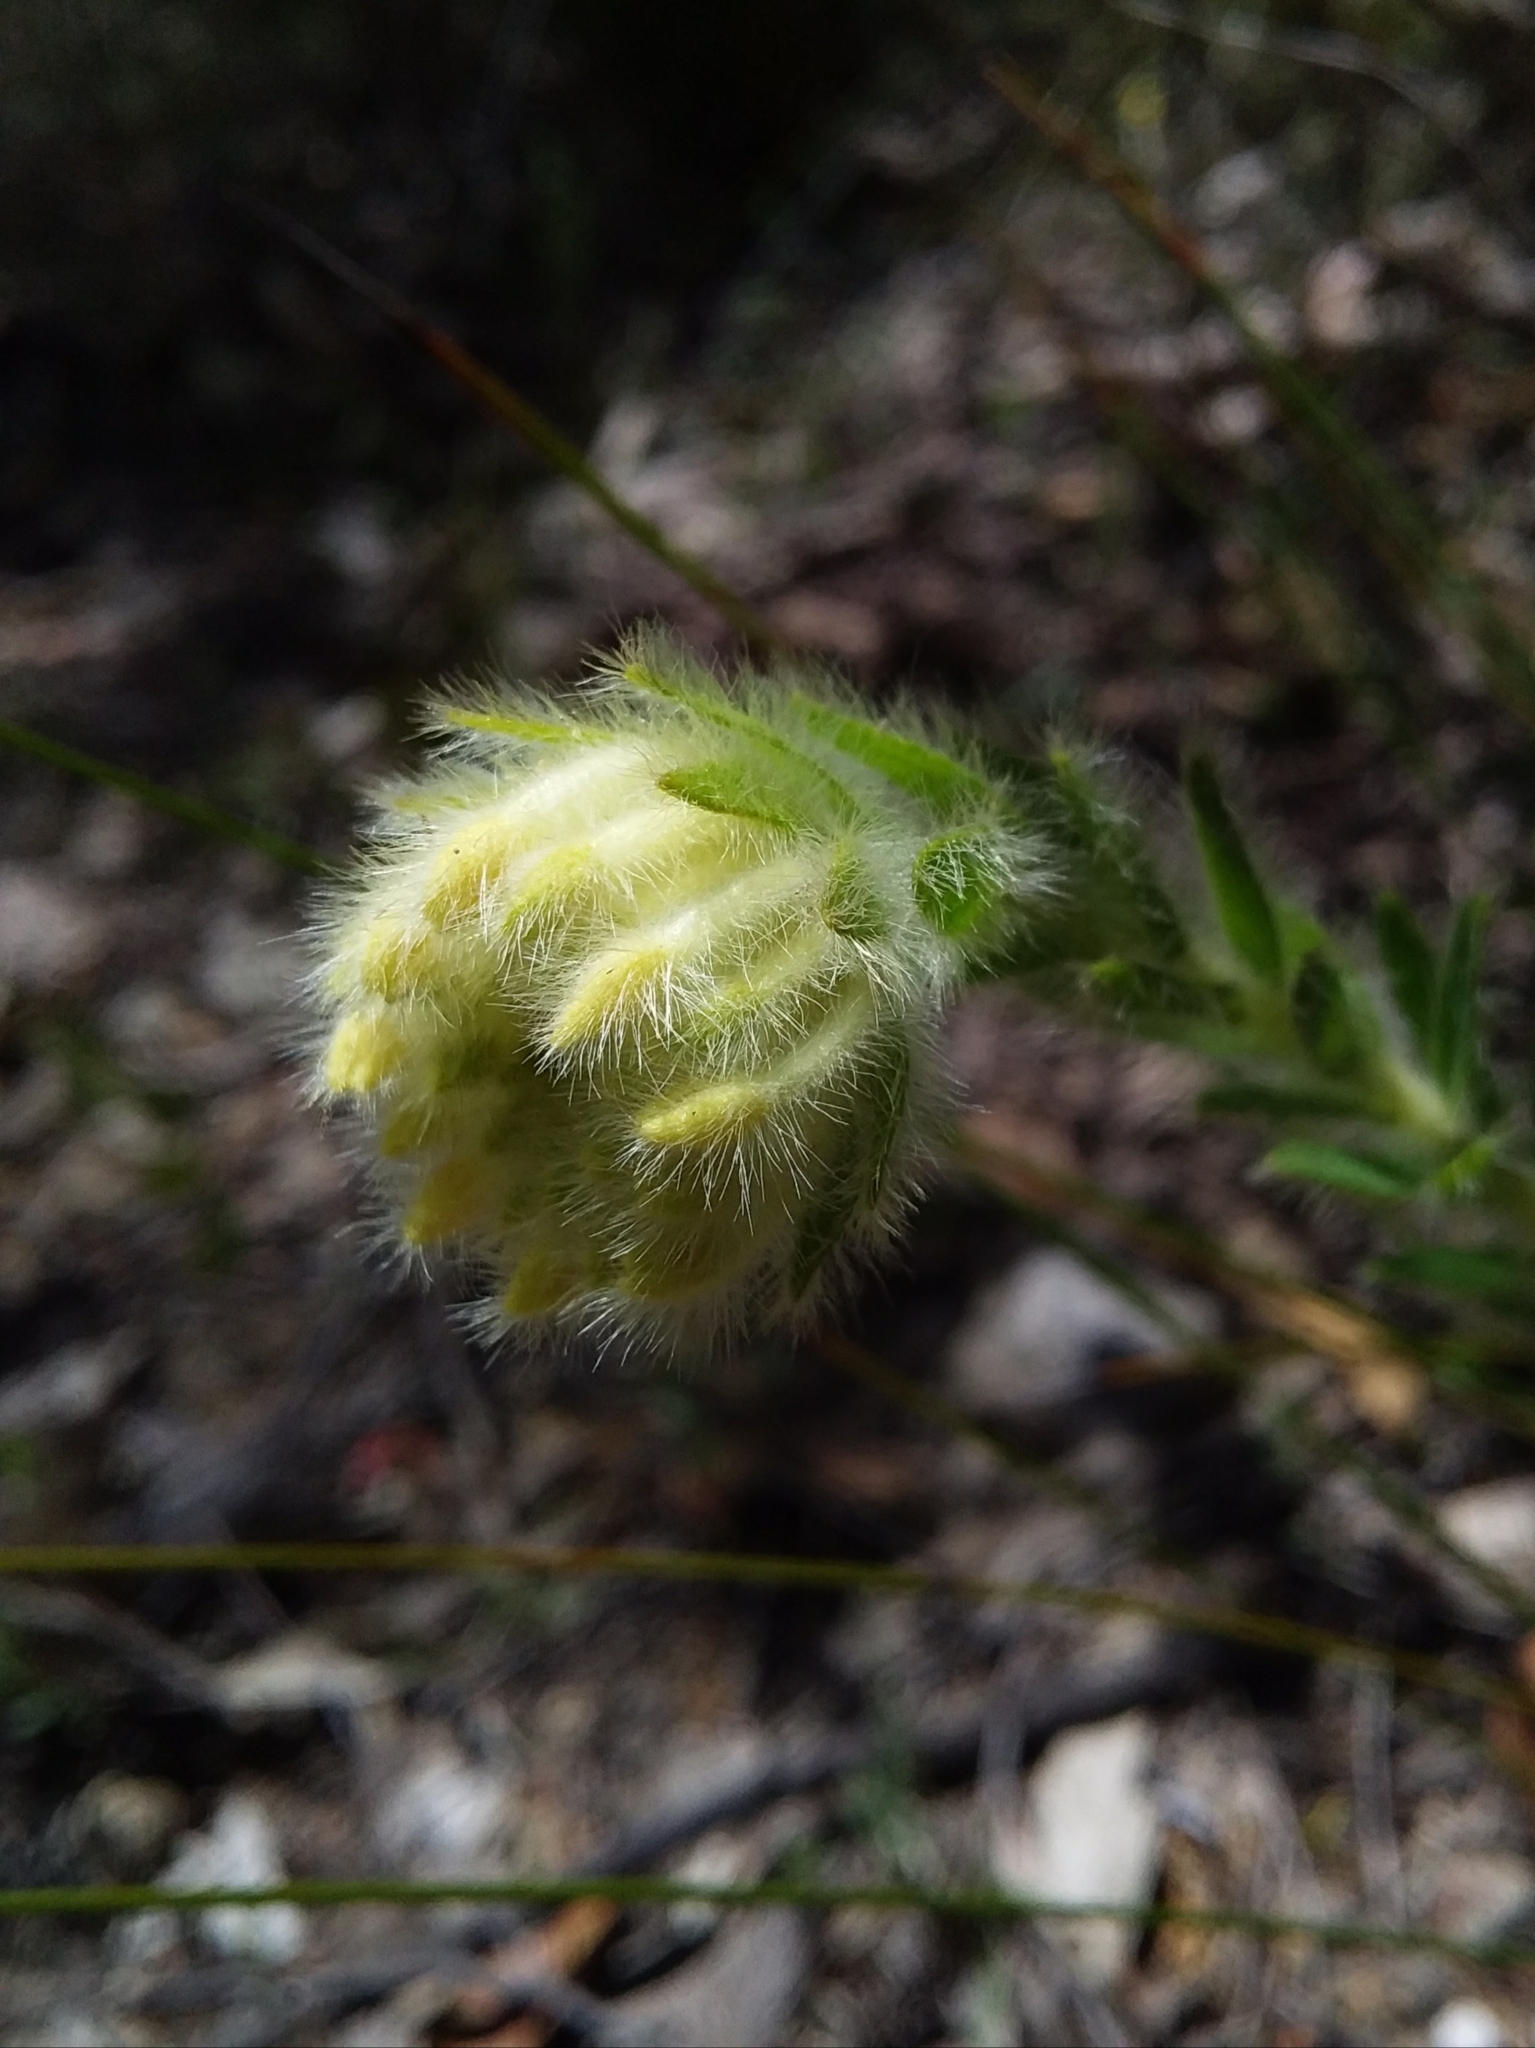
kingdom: Plantae
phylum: Tracheophyta
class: Magnoliopsida
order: Malvales
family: Thymelaeaceae
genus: Pimelea
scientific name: Pimelea octophylla
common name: Woolly riceflower
